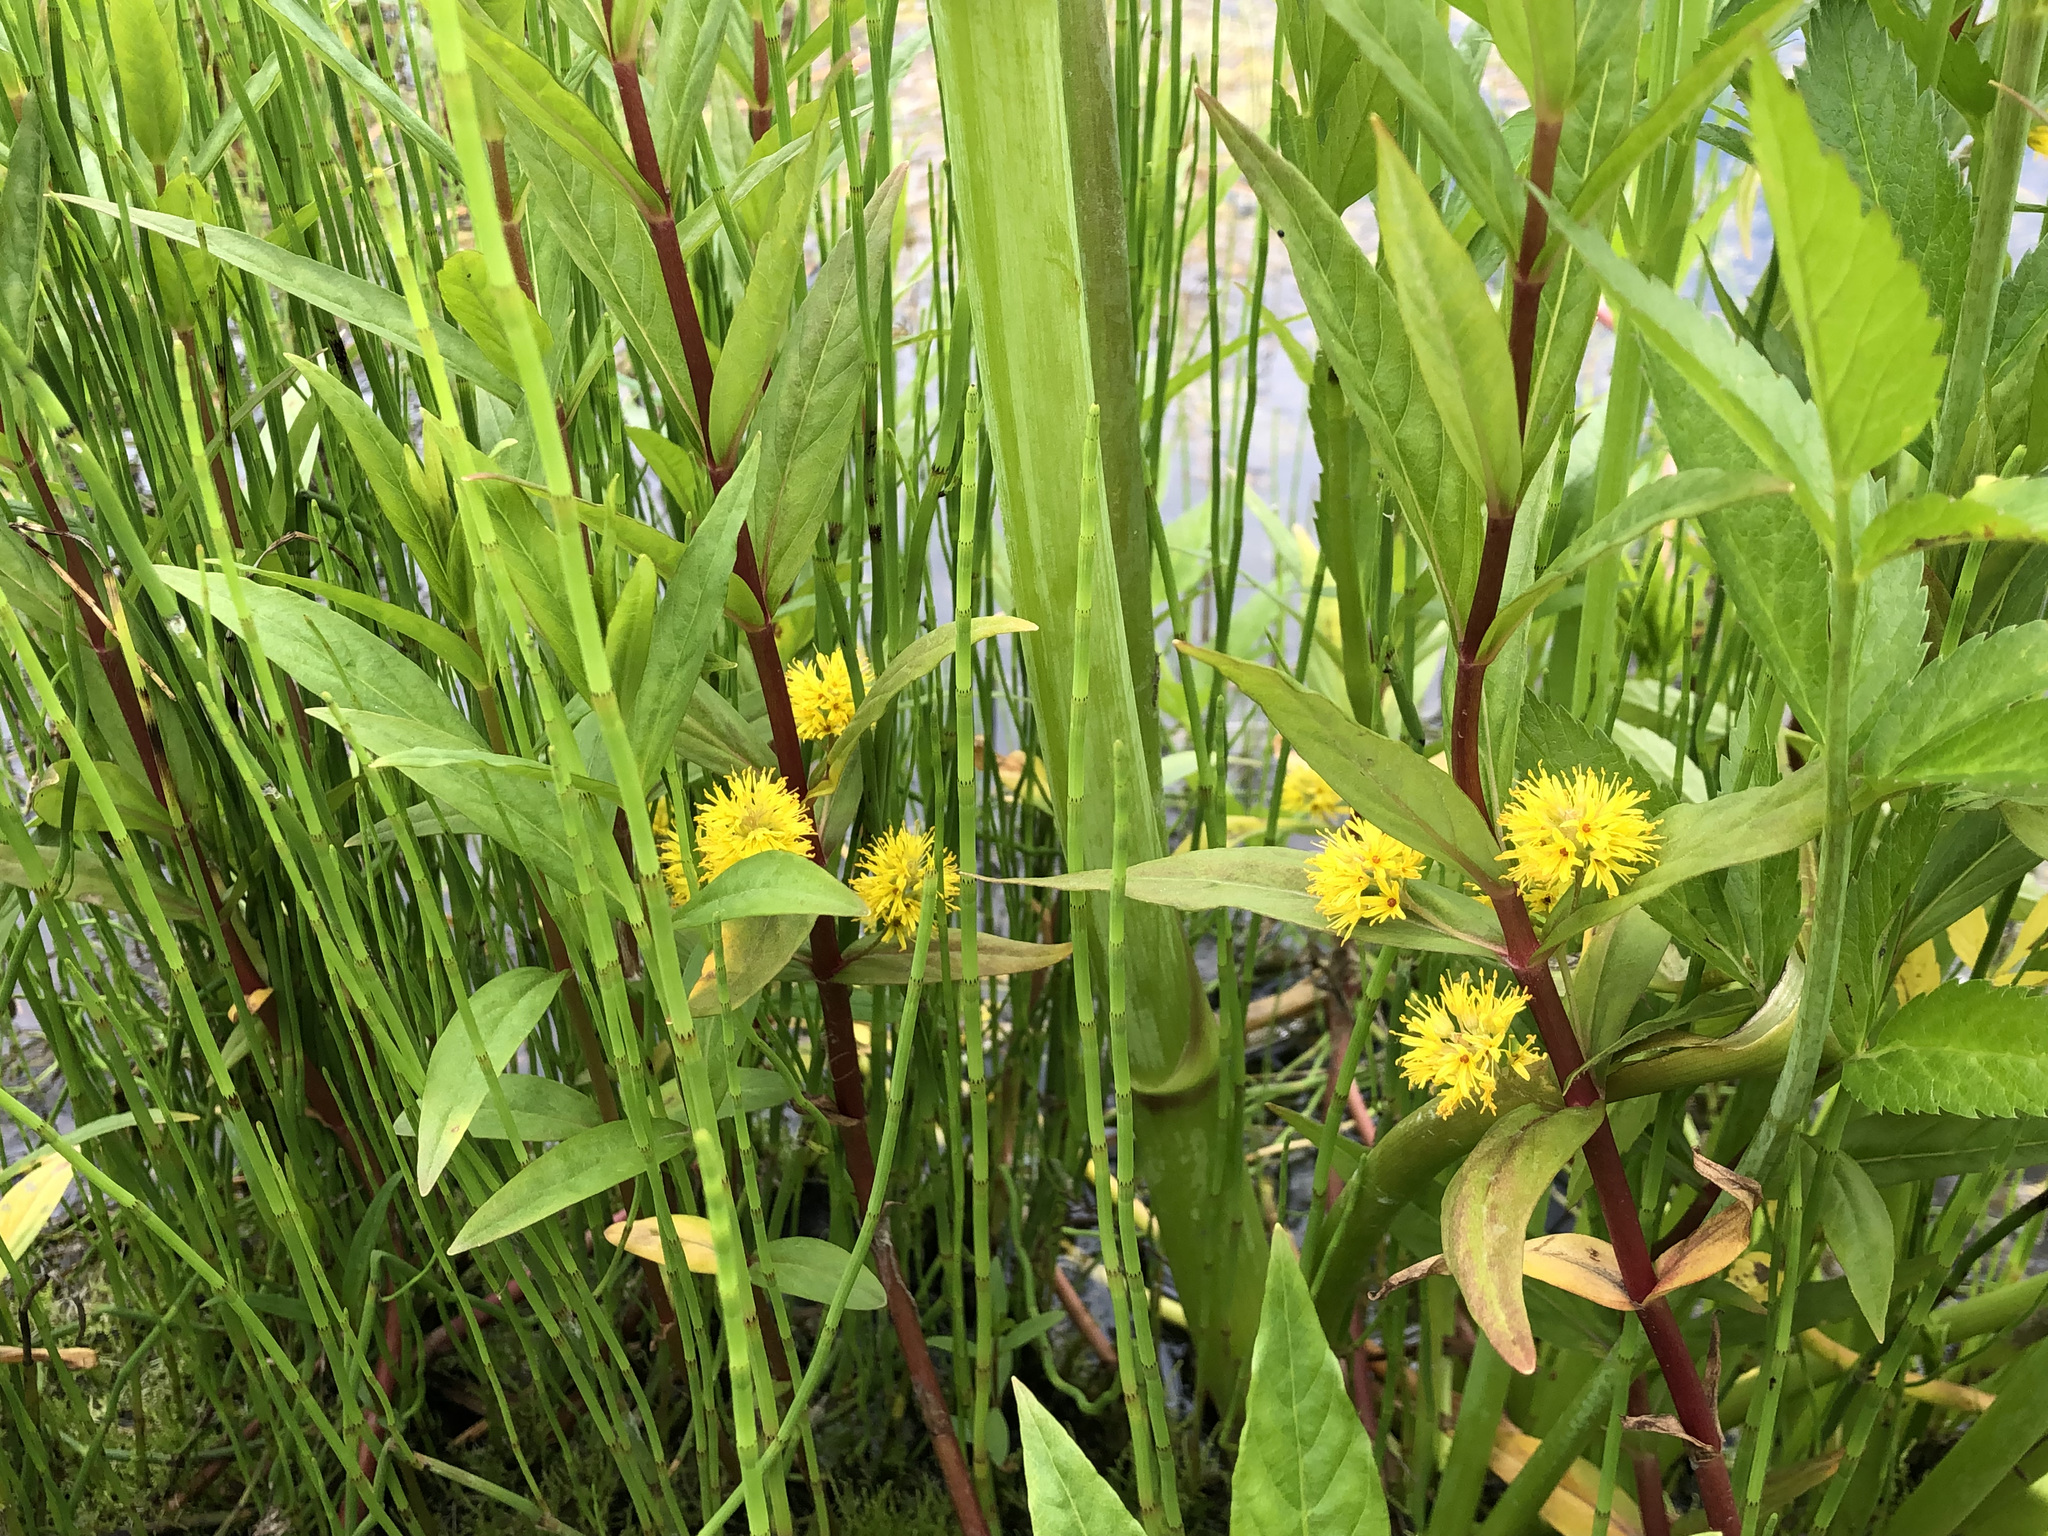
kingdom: Plantae
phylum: Tracheophyta
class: Magnoliopsida
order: Ericales
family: Primulaceae
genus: Lysimachia
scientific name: Lysimachia thyrsiflora
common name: Tufted loosestrife
